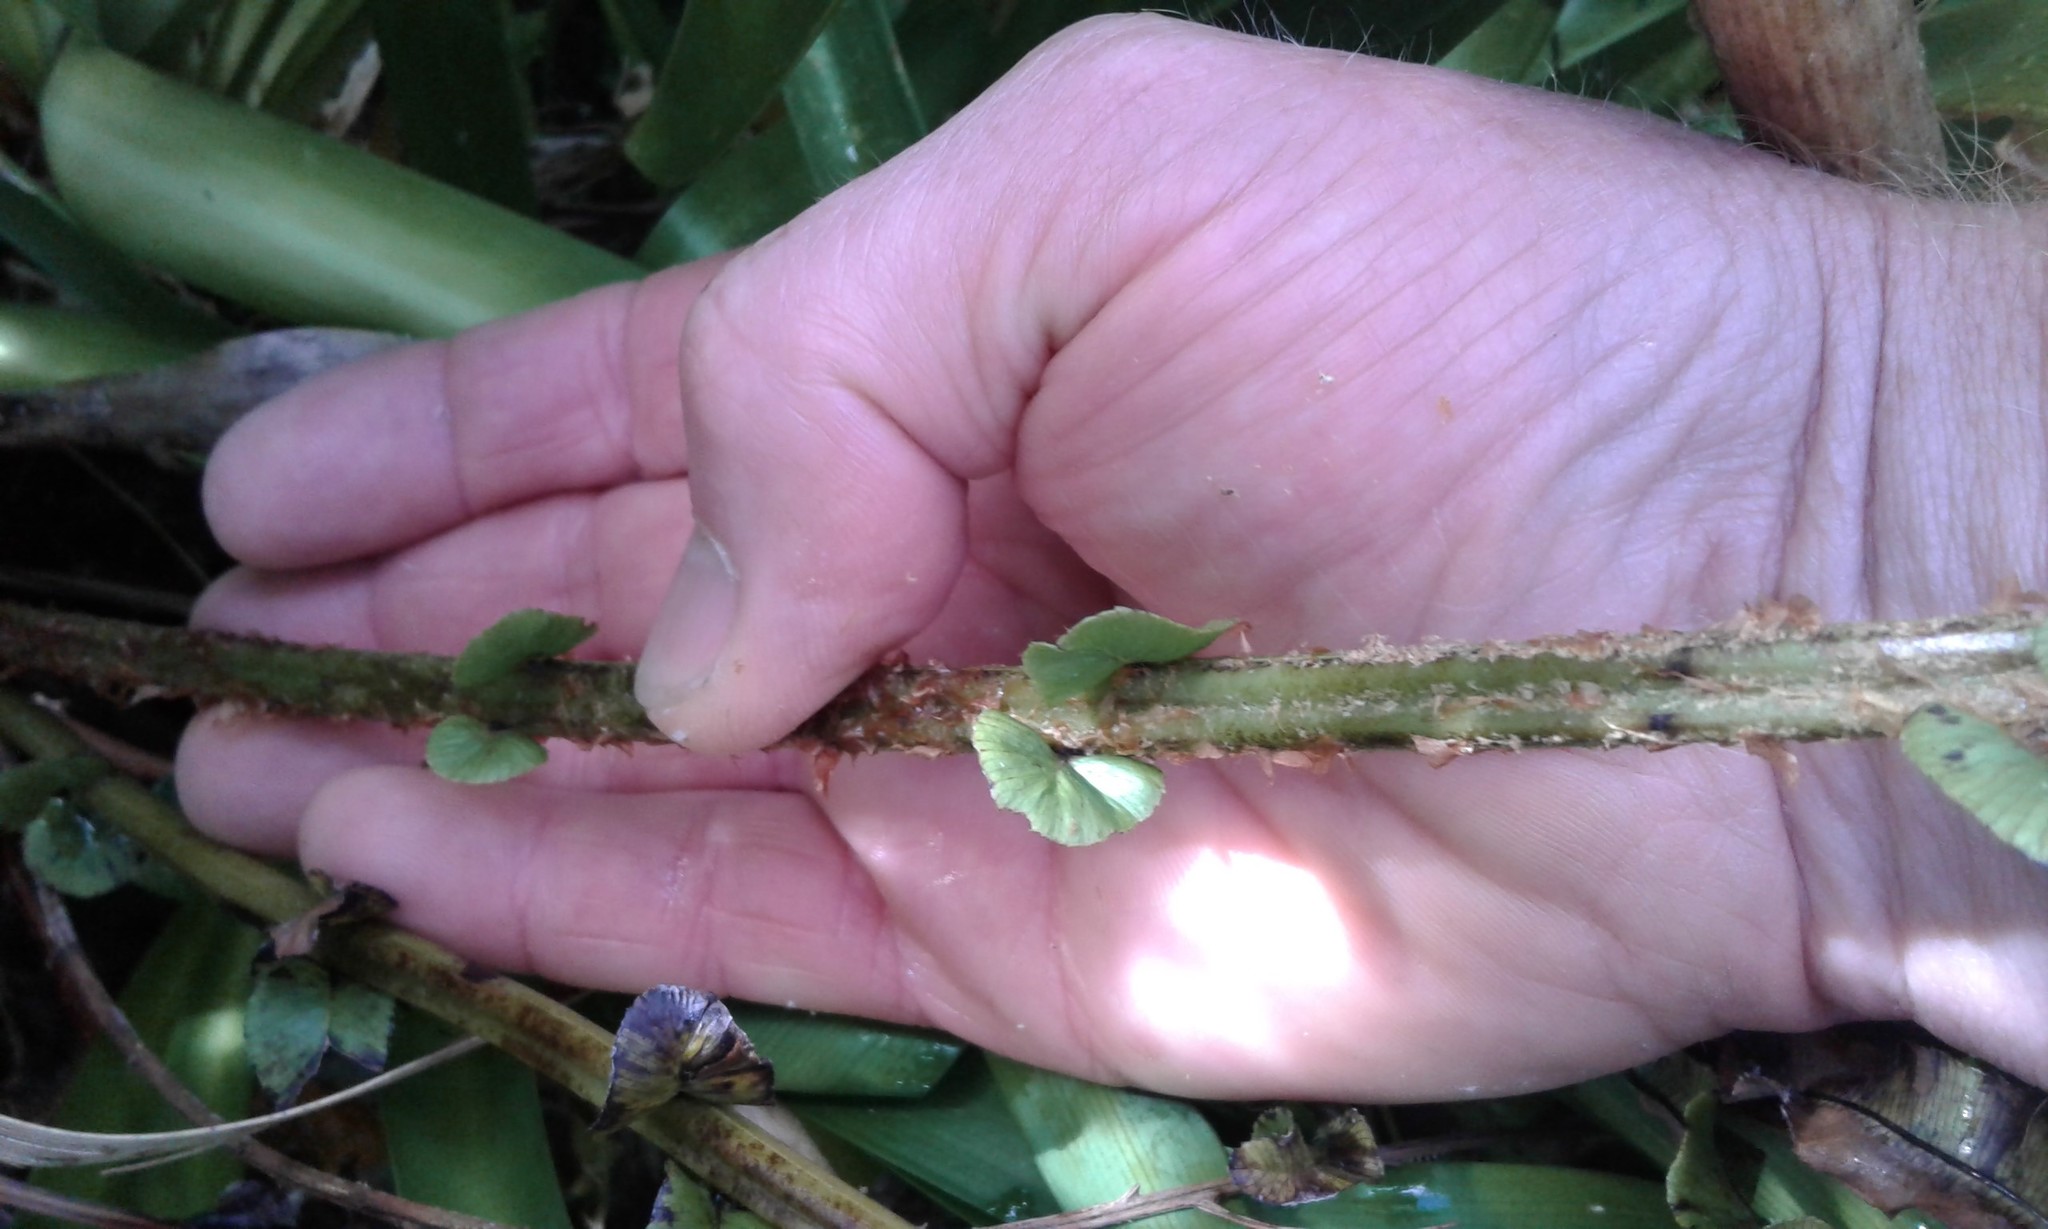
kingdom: Plantae
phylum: Tracheophyta
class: Polypodiopsida
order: Polypodiales
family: Blechnaceae
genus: Parablechnum
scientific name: Parablechnum minus
